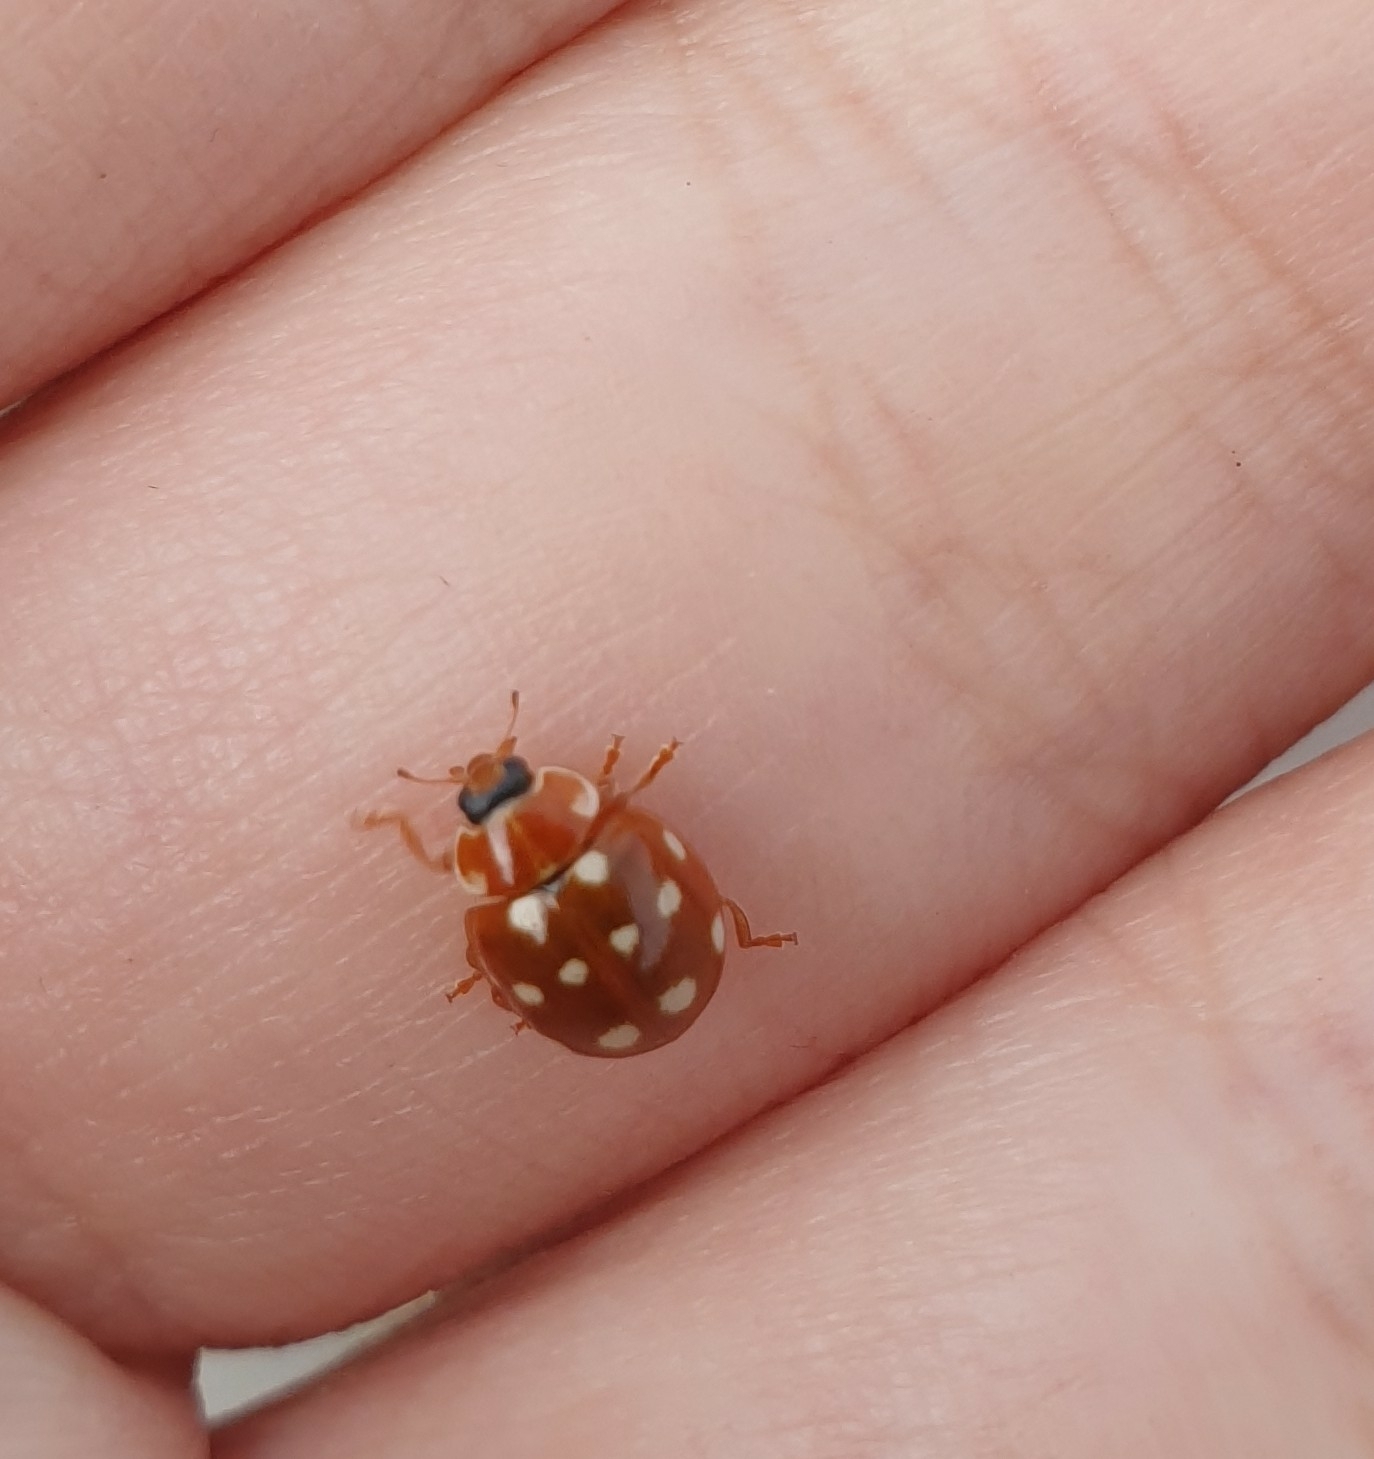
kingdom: Animalia
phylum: Arthropoda
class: Insecta
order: Coleoptera
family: Coccinellidae
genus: Calvia
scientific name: Calvia quatuordecimguttata
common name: Cream-spot ladybird
